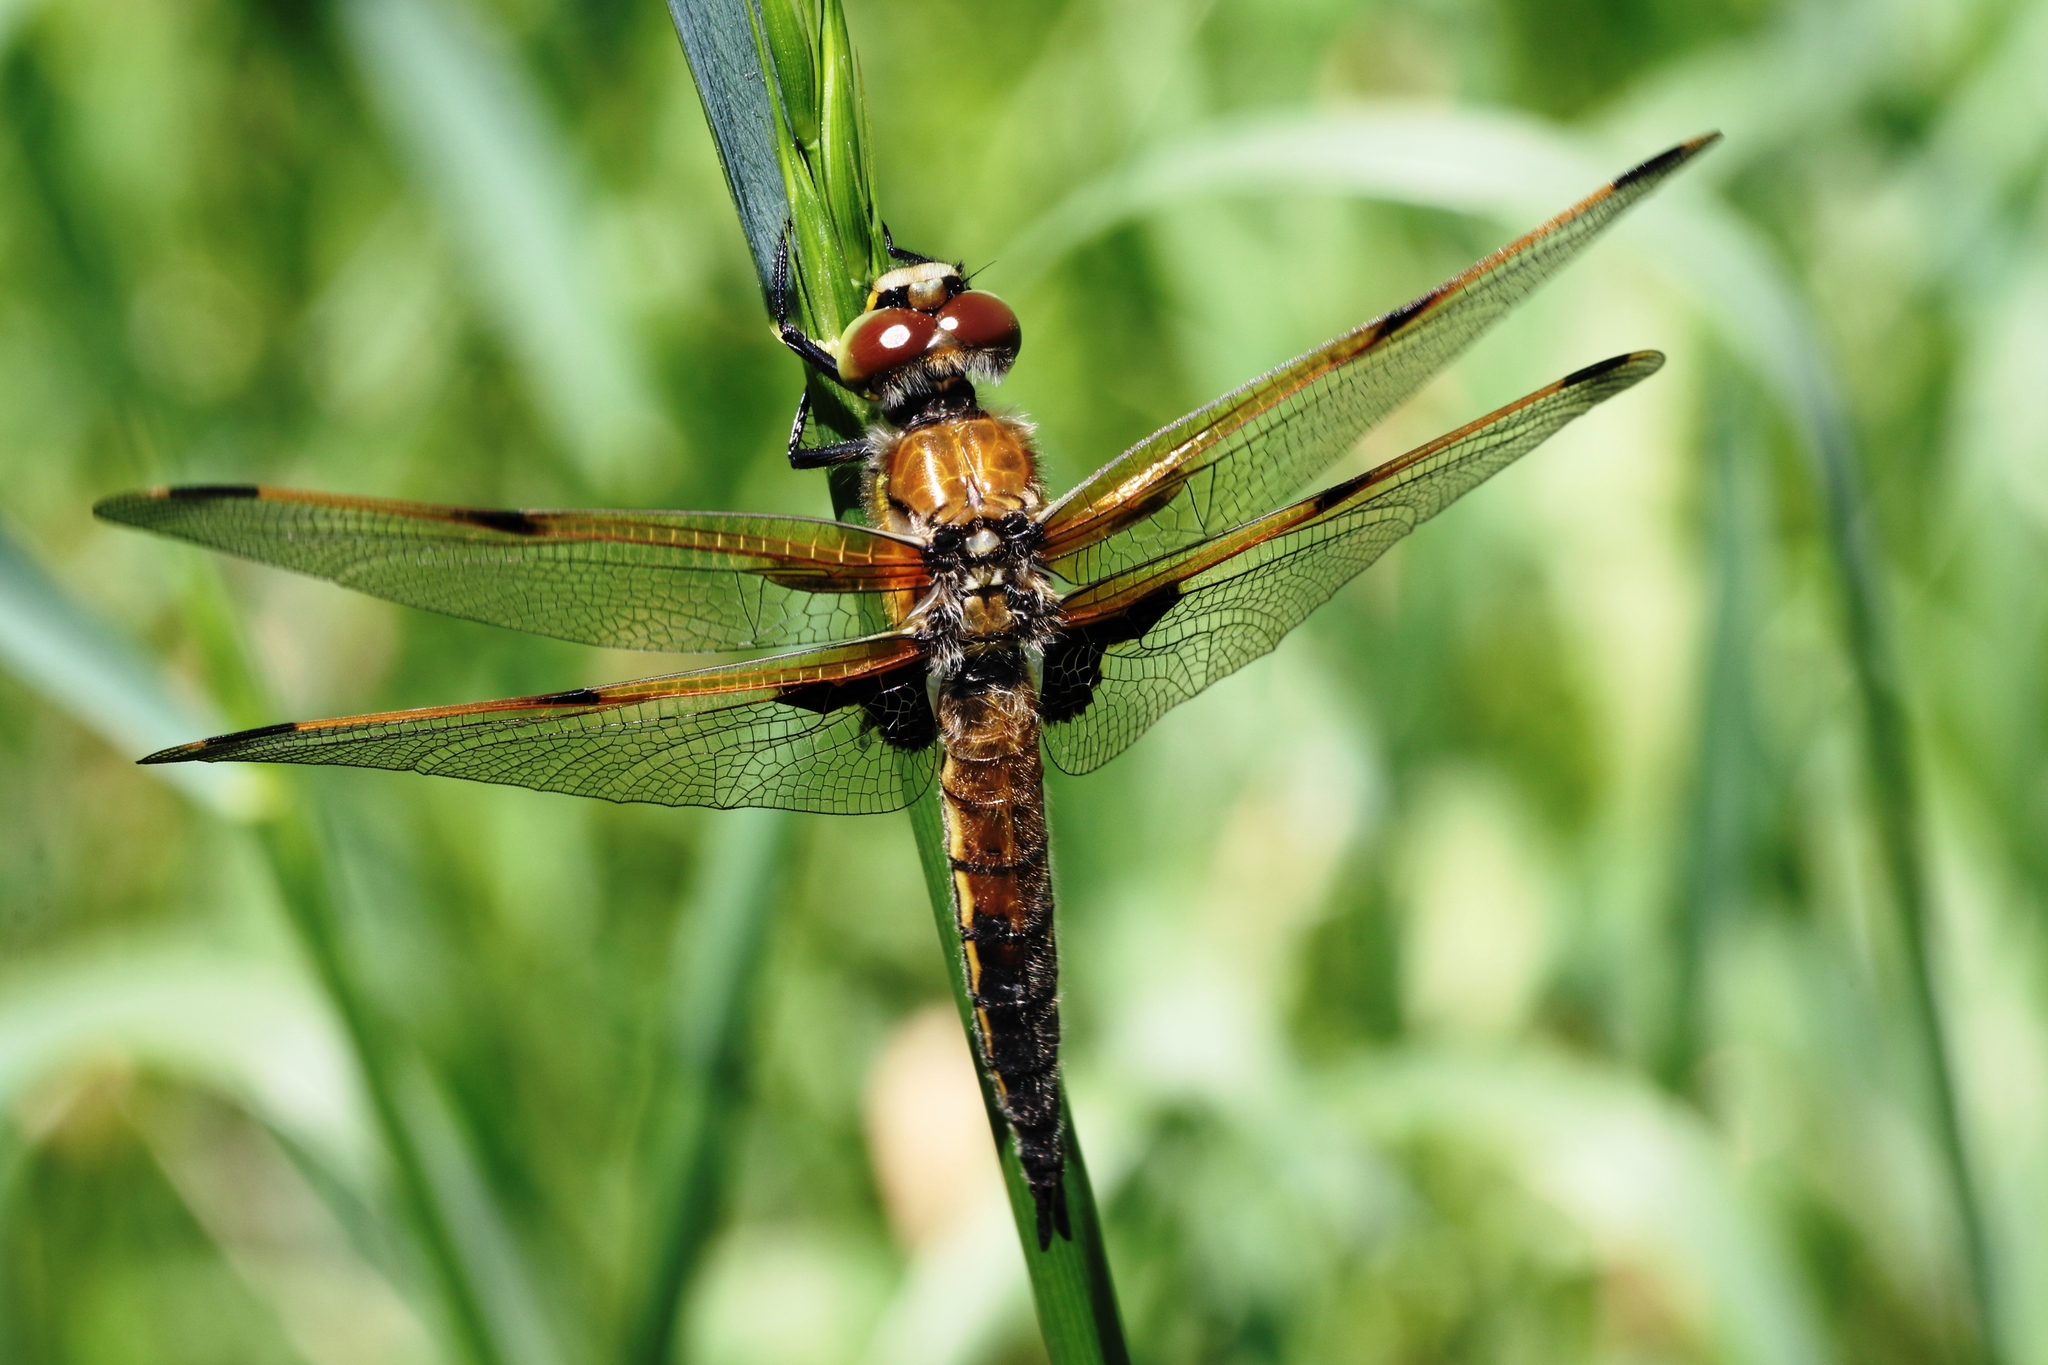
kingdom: Animalia
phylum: Arthropoda
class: Insecta
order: Odonata
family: Libellulidae
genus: Libellula
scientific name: Libellula quadrimaculata
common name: Four-spotted chaser
